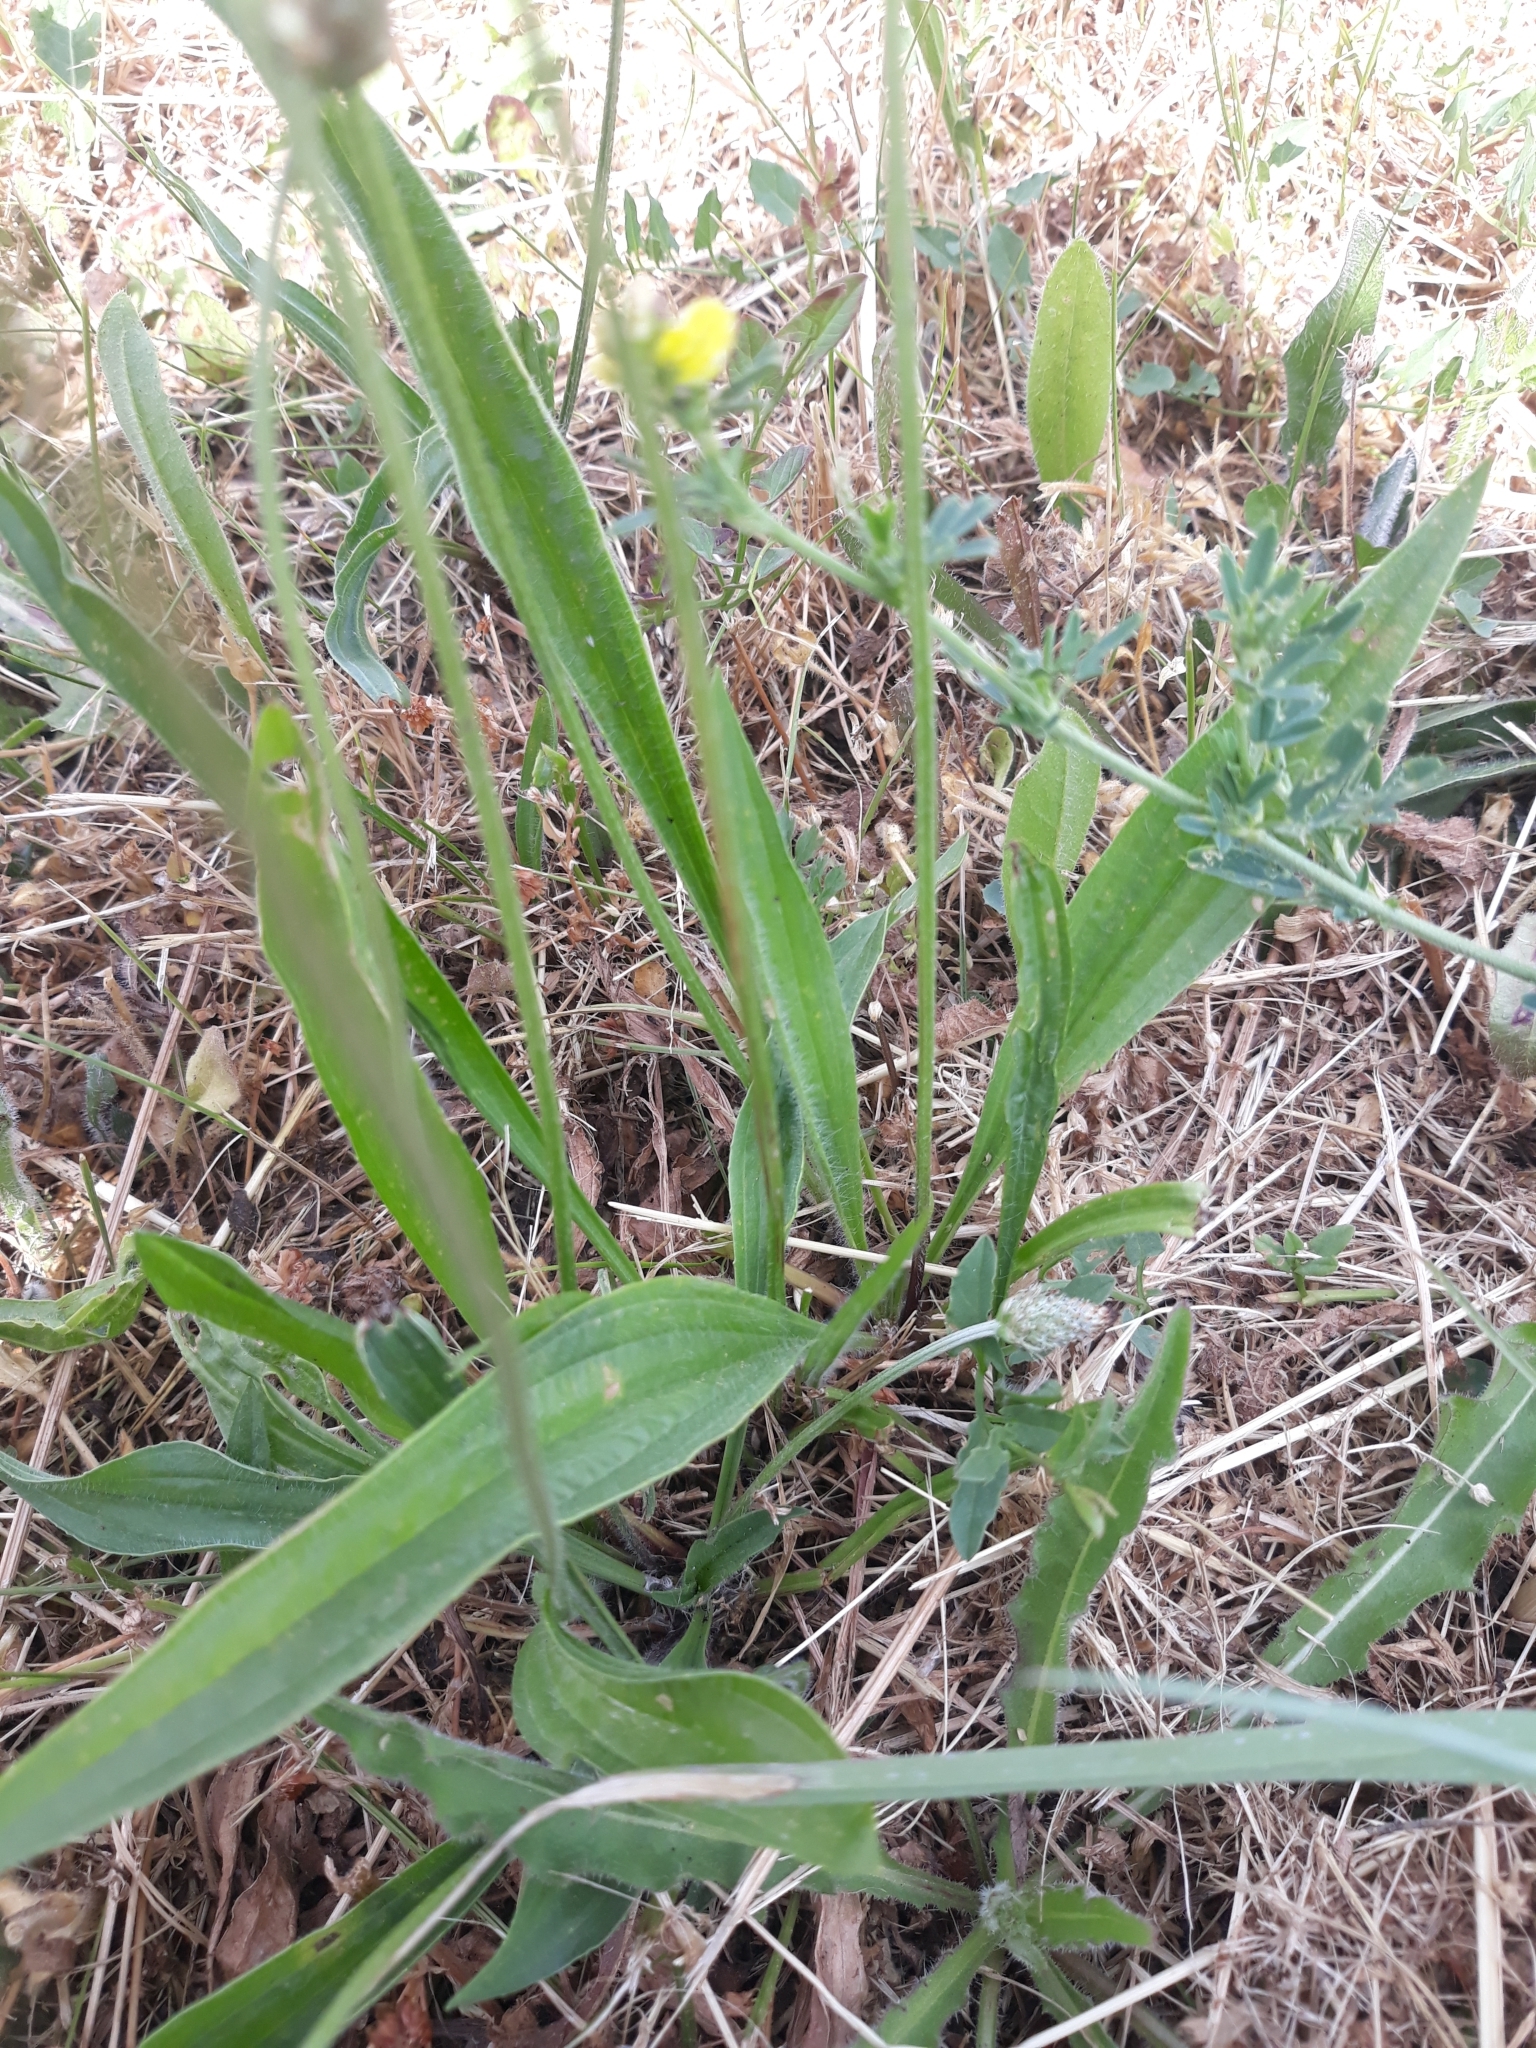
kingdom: Plantae
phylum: Tracheophyta
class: Magnoliopsida
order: Lamiales
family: Plantaginaceae
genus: Plantago
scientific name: Plantago lanceolata
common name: Ribwort plantain
